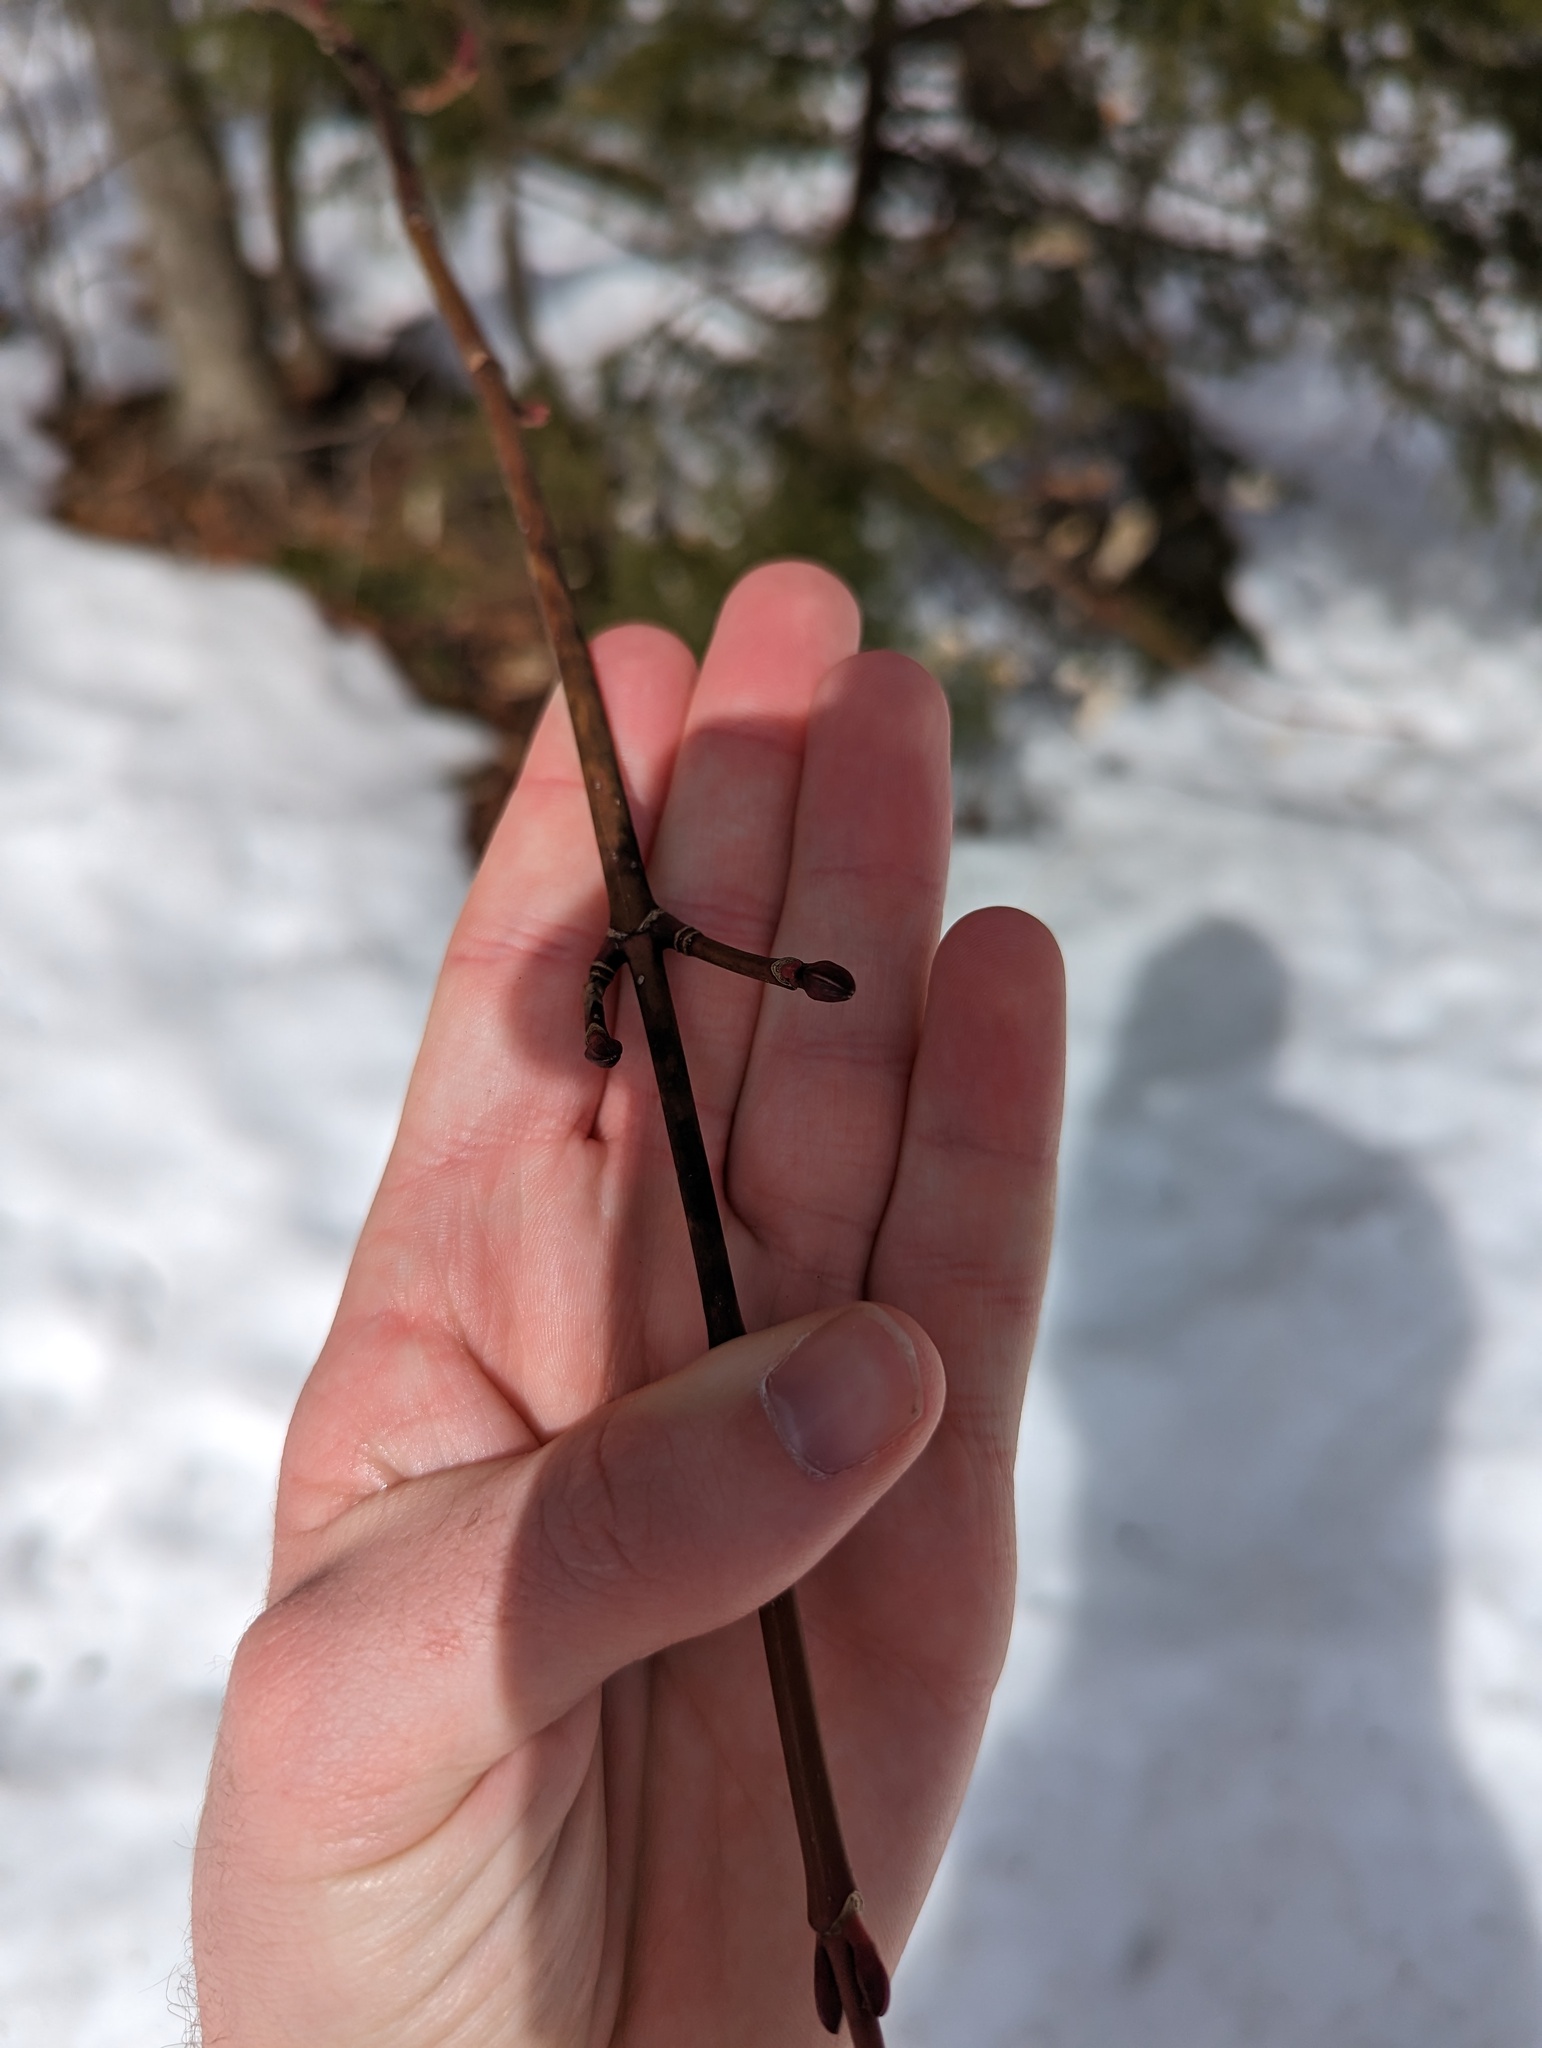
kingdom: Plantae
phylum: Tracheophyta
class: Magnoliopsida
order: Sapindales
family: Sapindaceae
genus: Acer
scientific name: Acer pensylvanicum
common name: Moosewood
